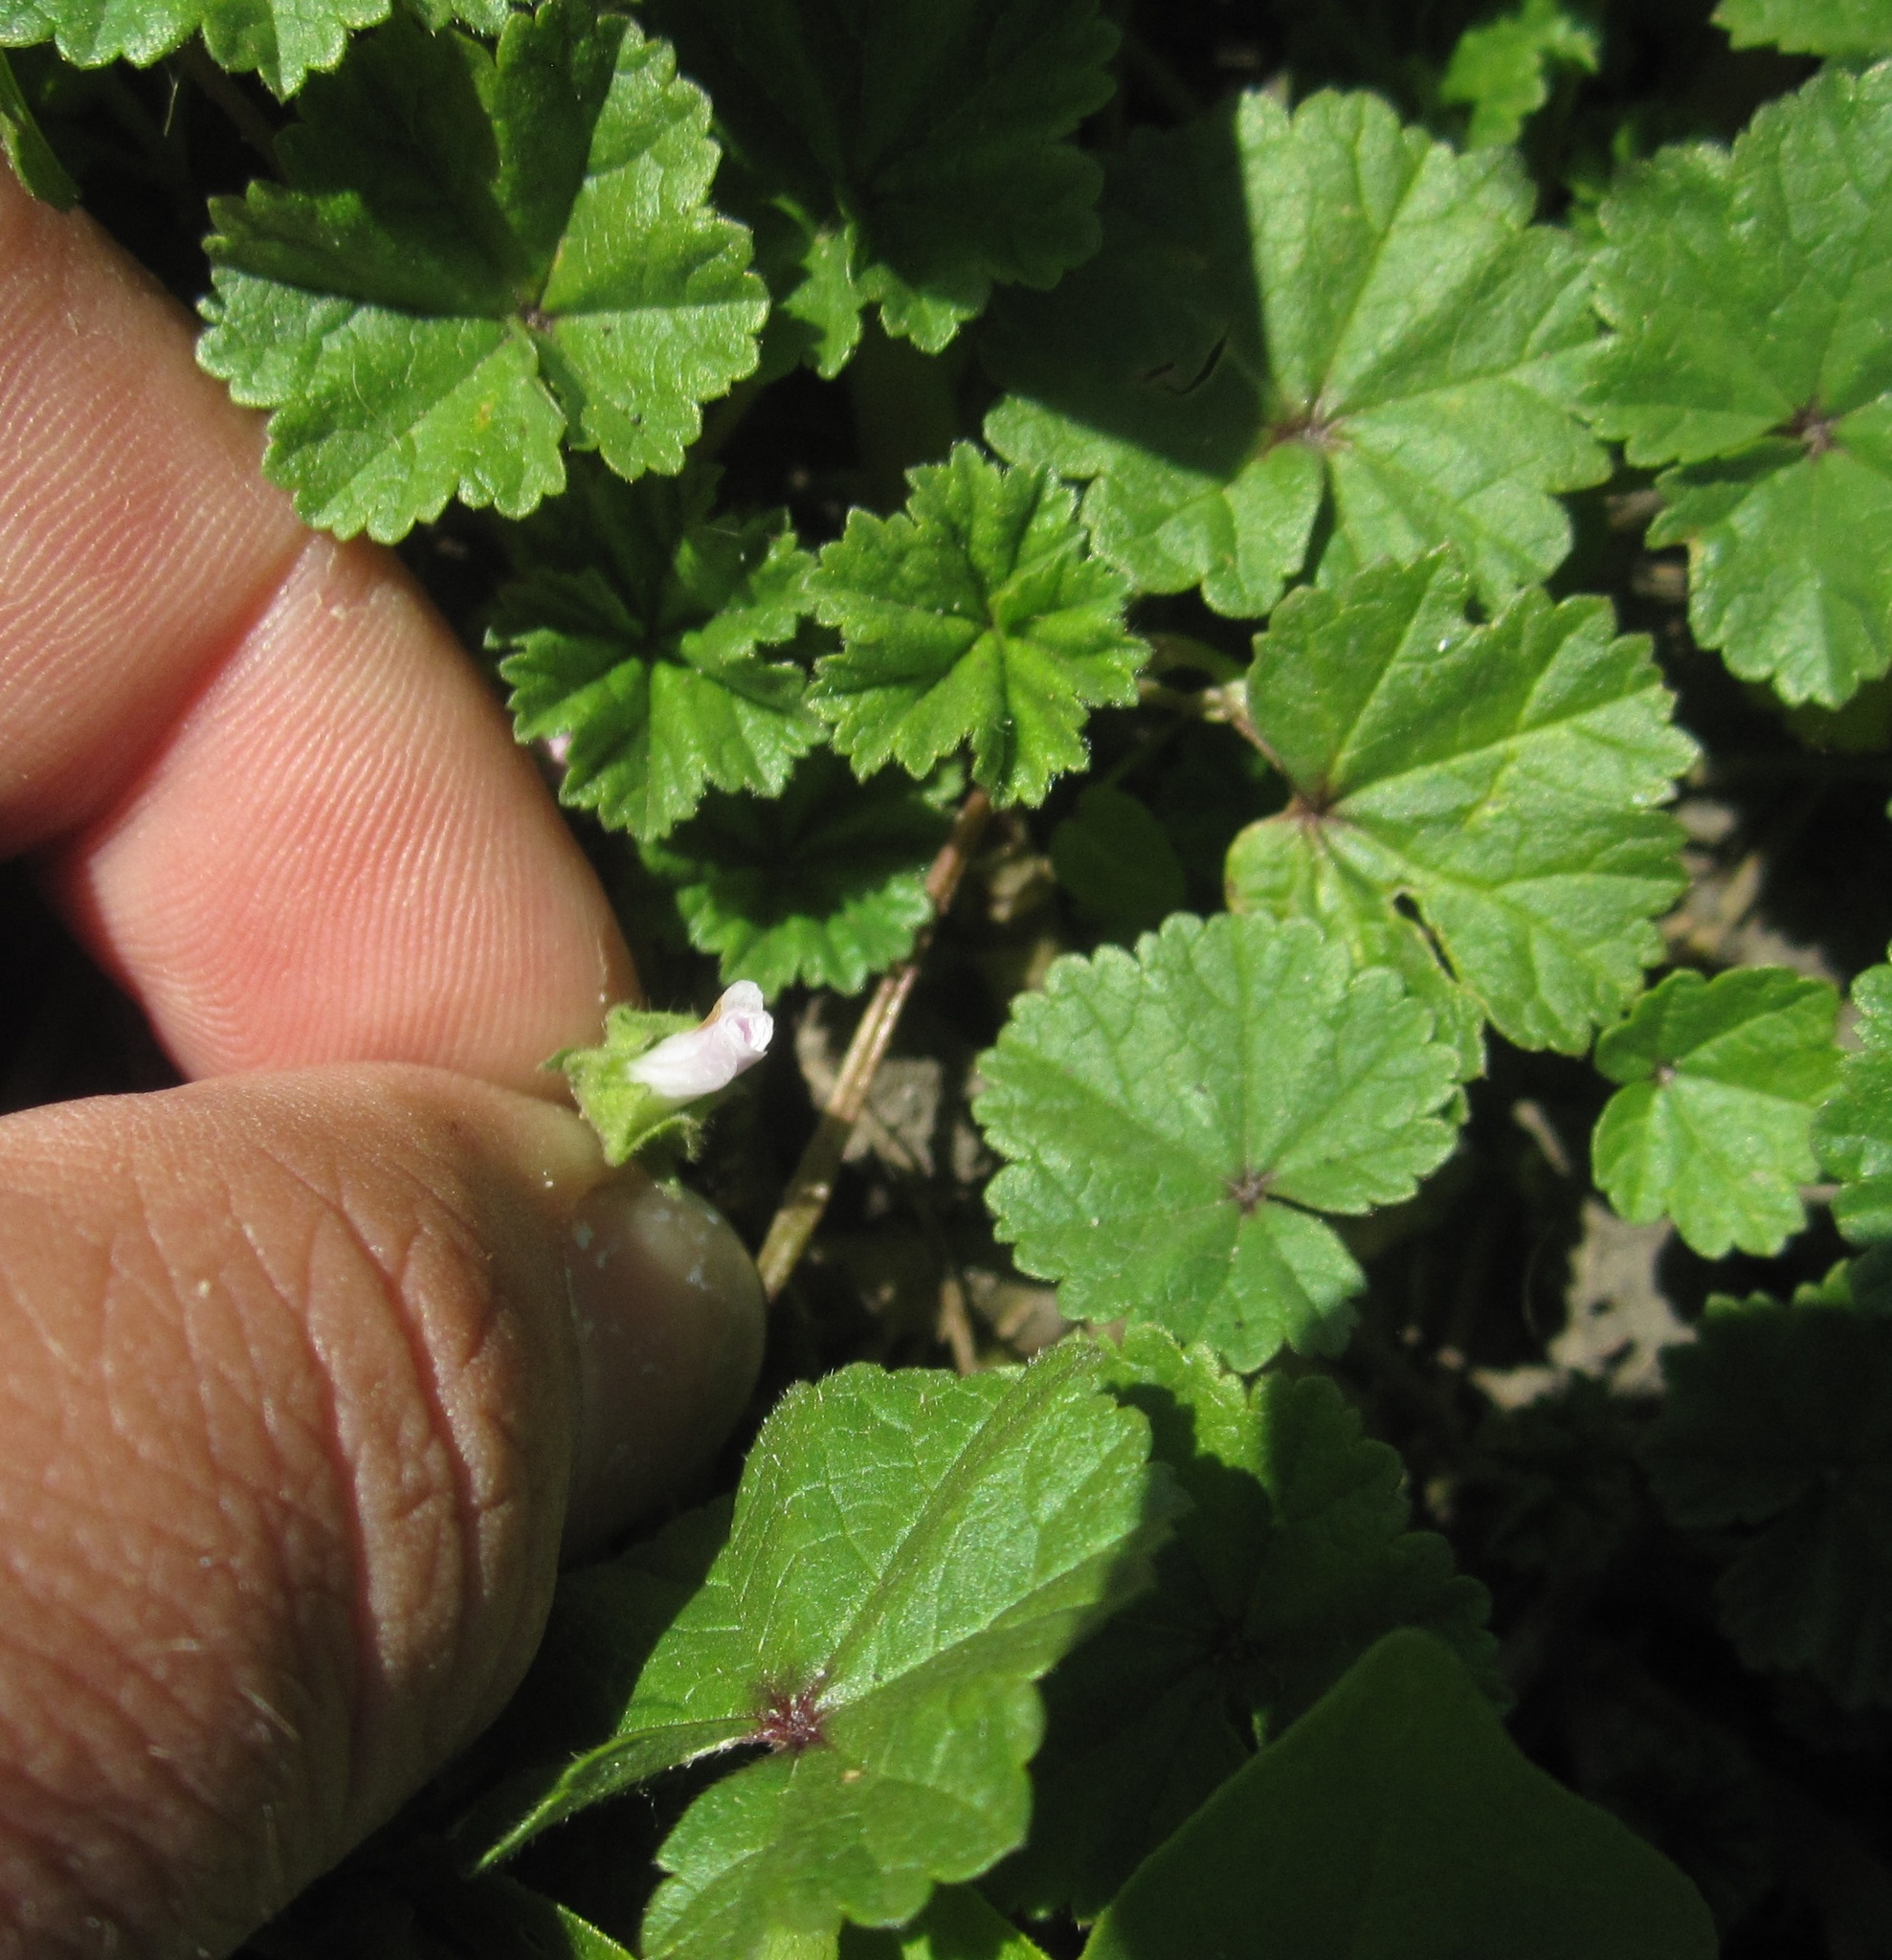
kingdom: Plantae
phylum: Tracheophyta
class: Magnoliopsida
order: Malvales
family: Malvaceae
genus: Malva
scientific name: Malva neglecta
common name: Common mallow
